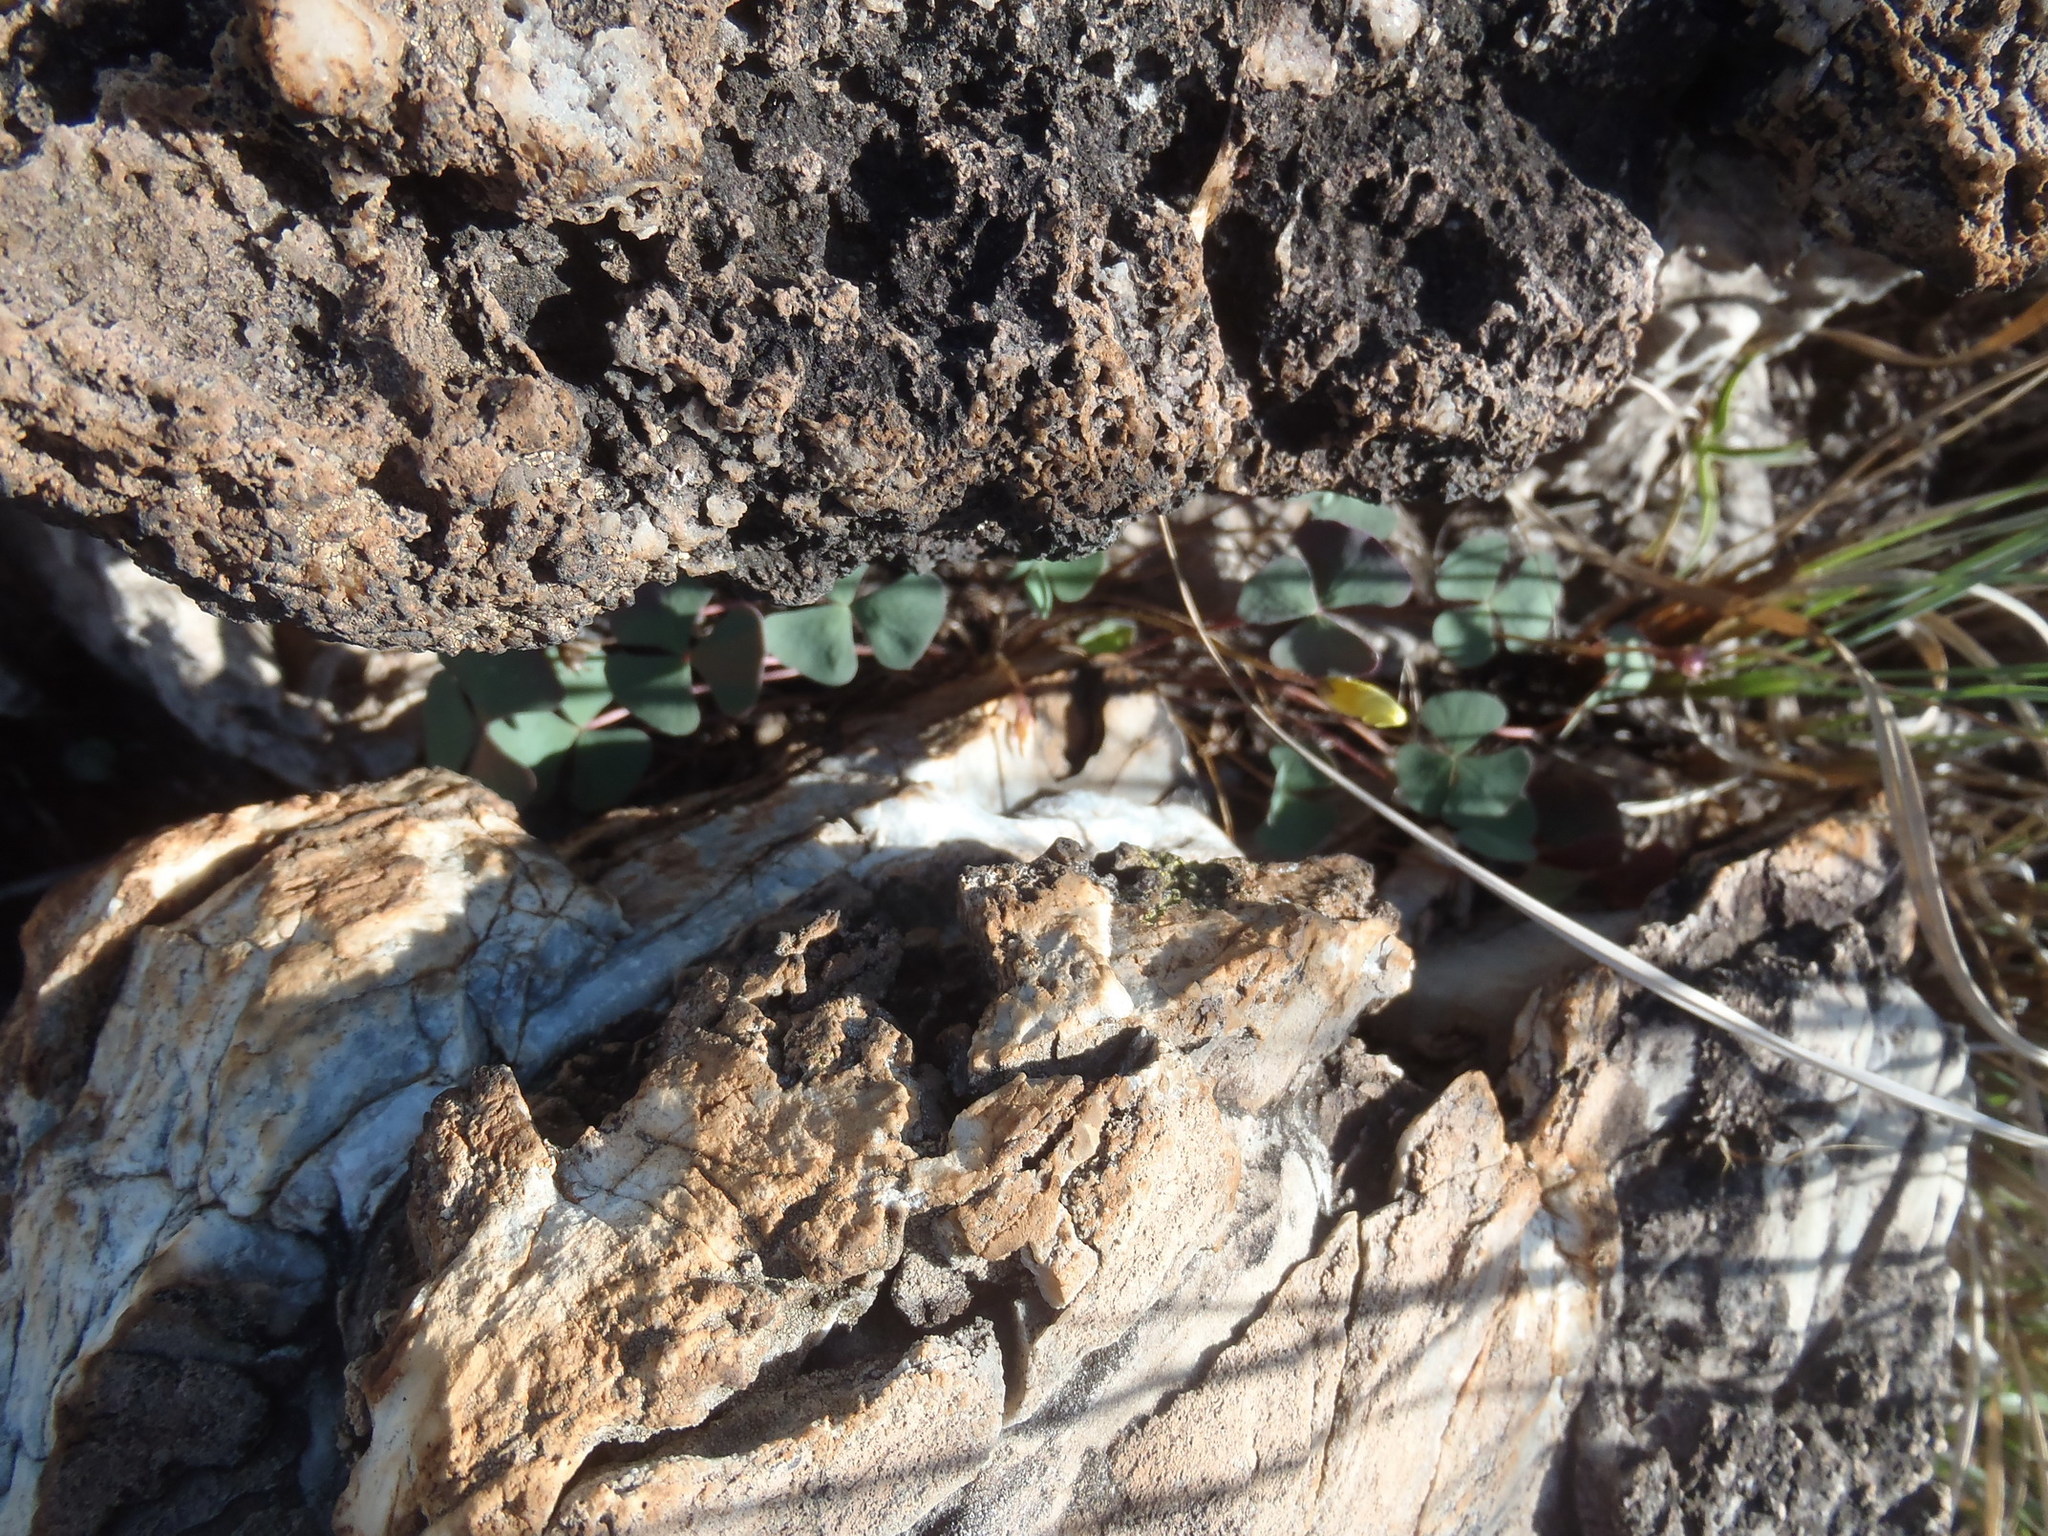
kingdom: Plantae
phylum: Tracheophyta
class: Magnoliopsida
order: Oxalidales
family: Oxalidaceae
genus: Oxalis
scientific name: Oxalis obliquifolia
